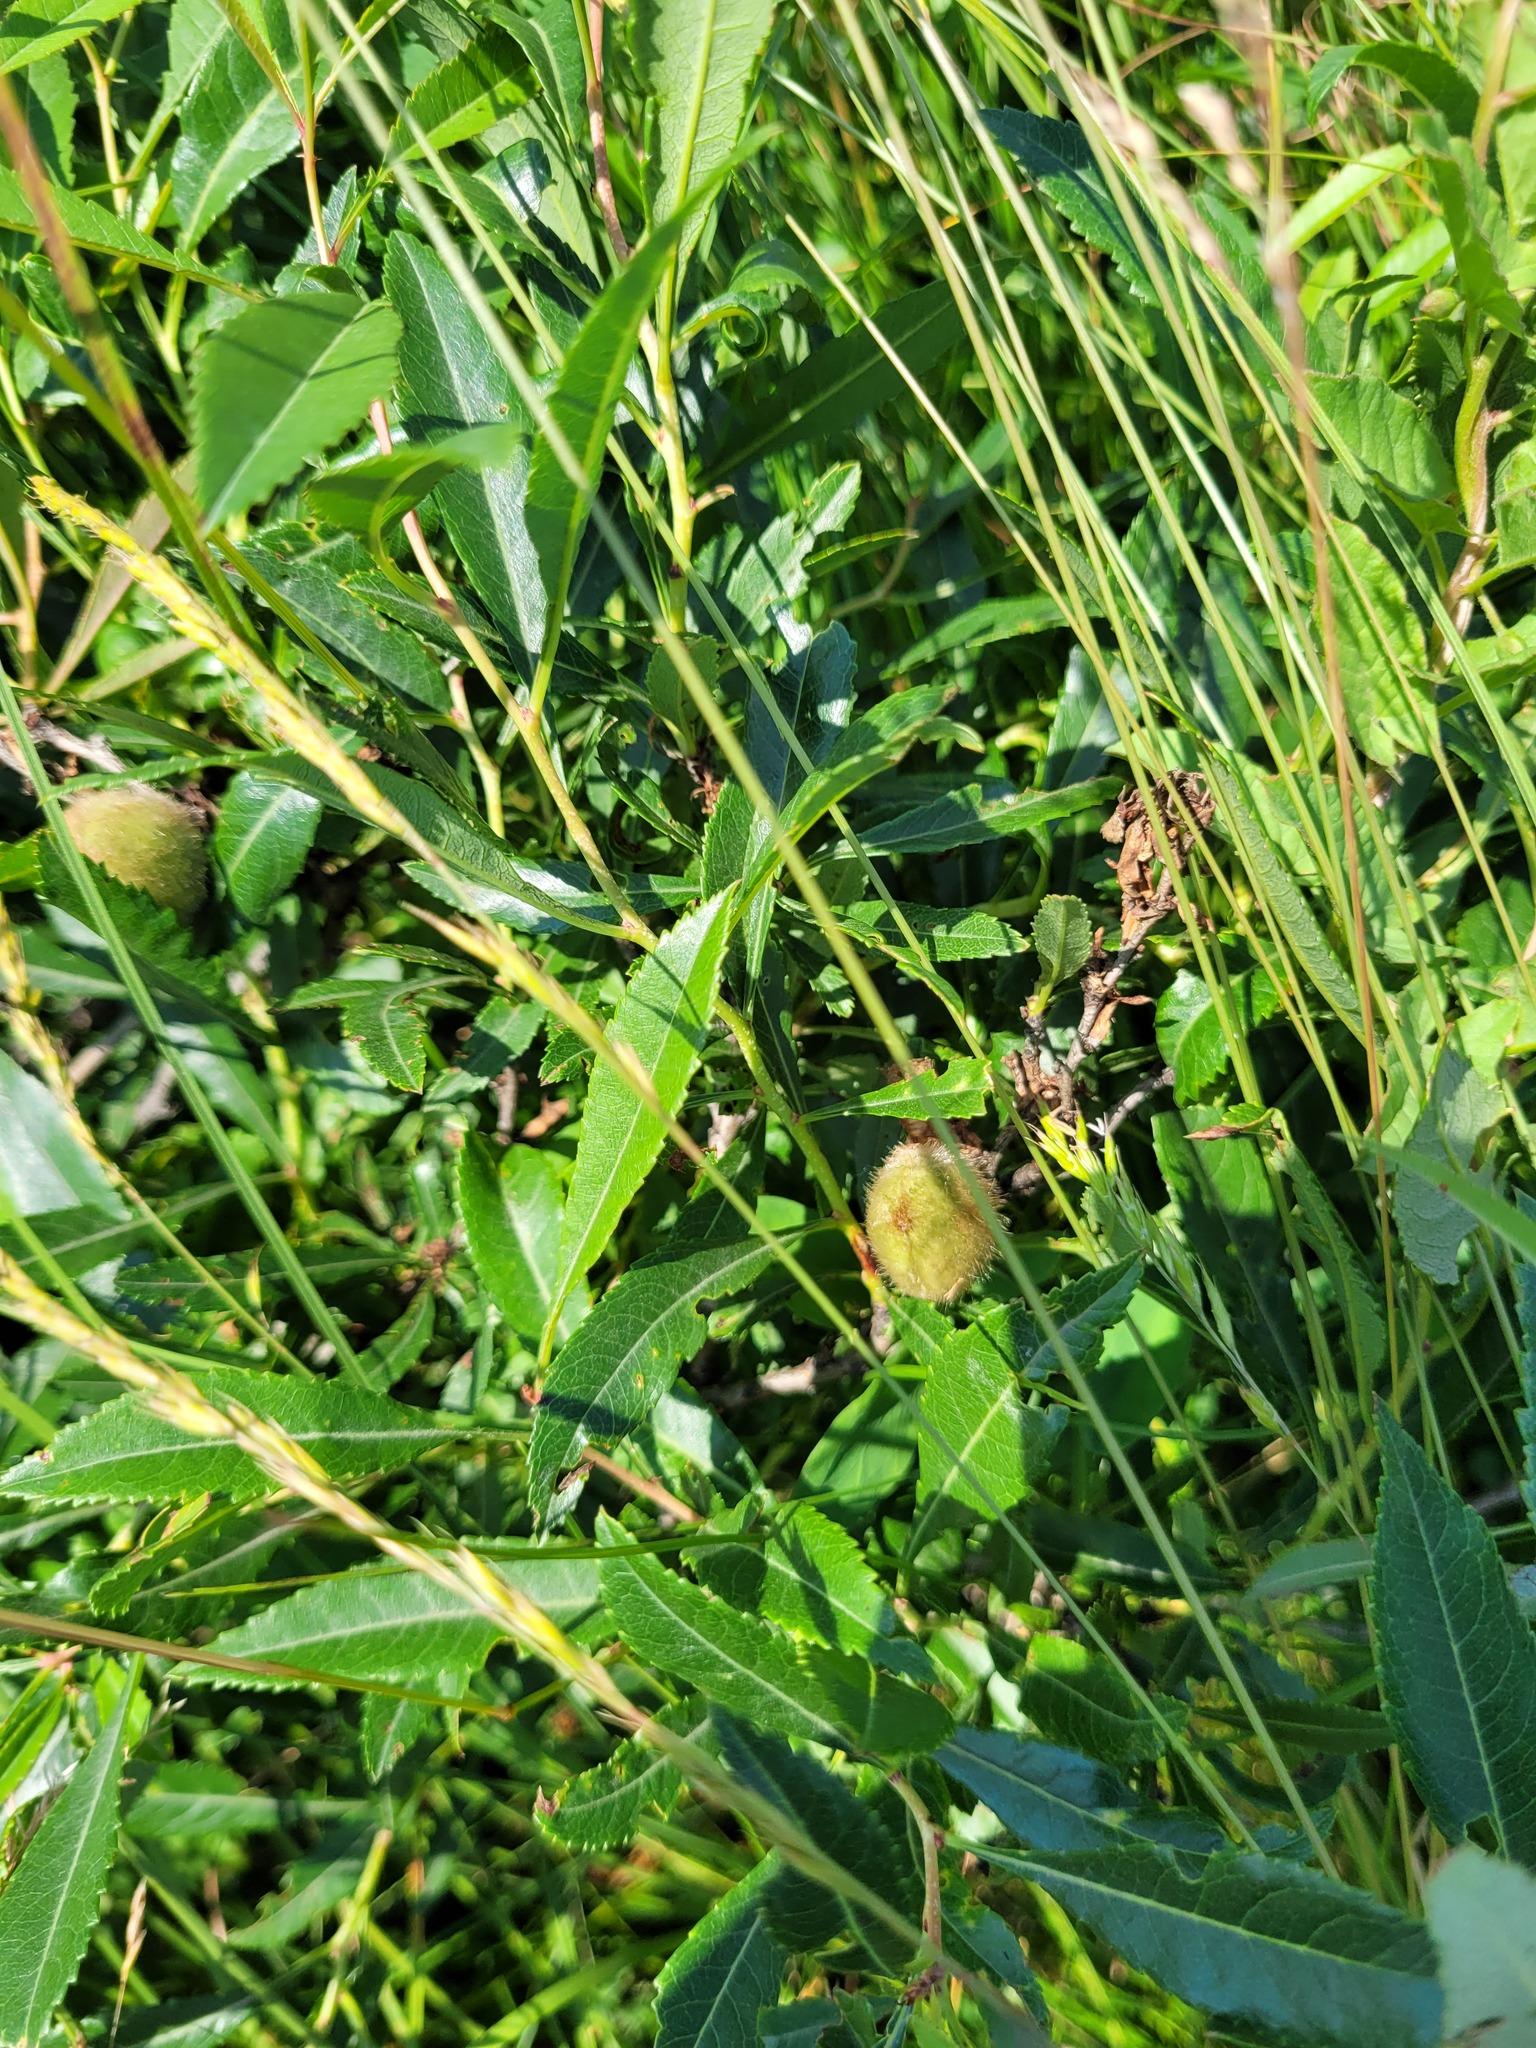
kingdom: Plantae
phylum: Tracheophyta
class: Magnoliopsida
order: Rosales
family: Rosaceae
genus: Prunus
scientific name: Prunus tenella
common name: Dwarf russian almond
